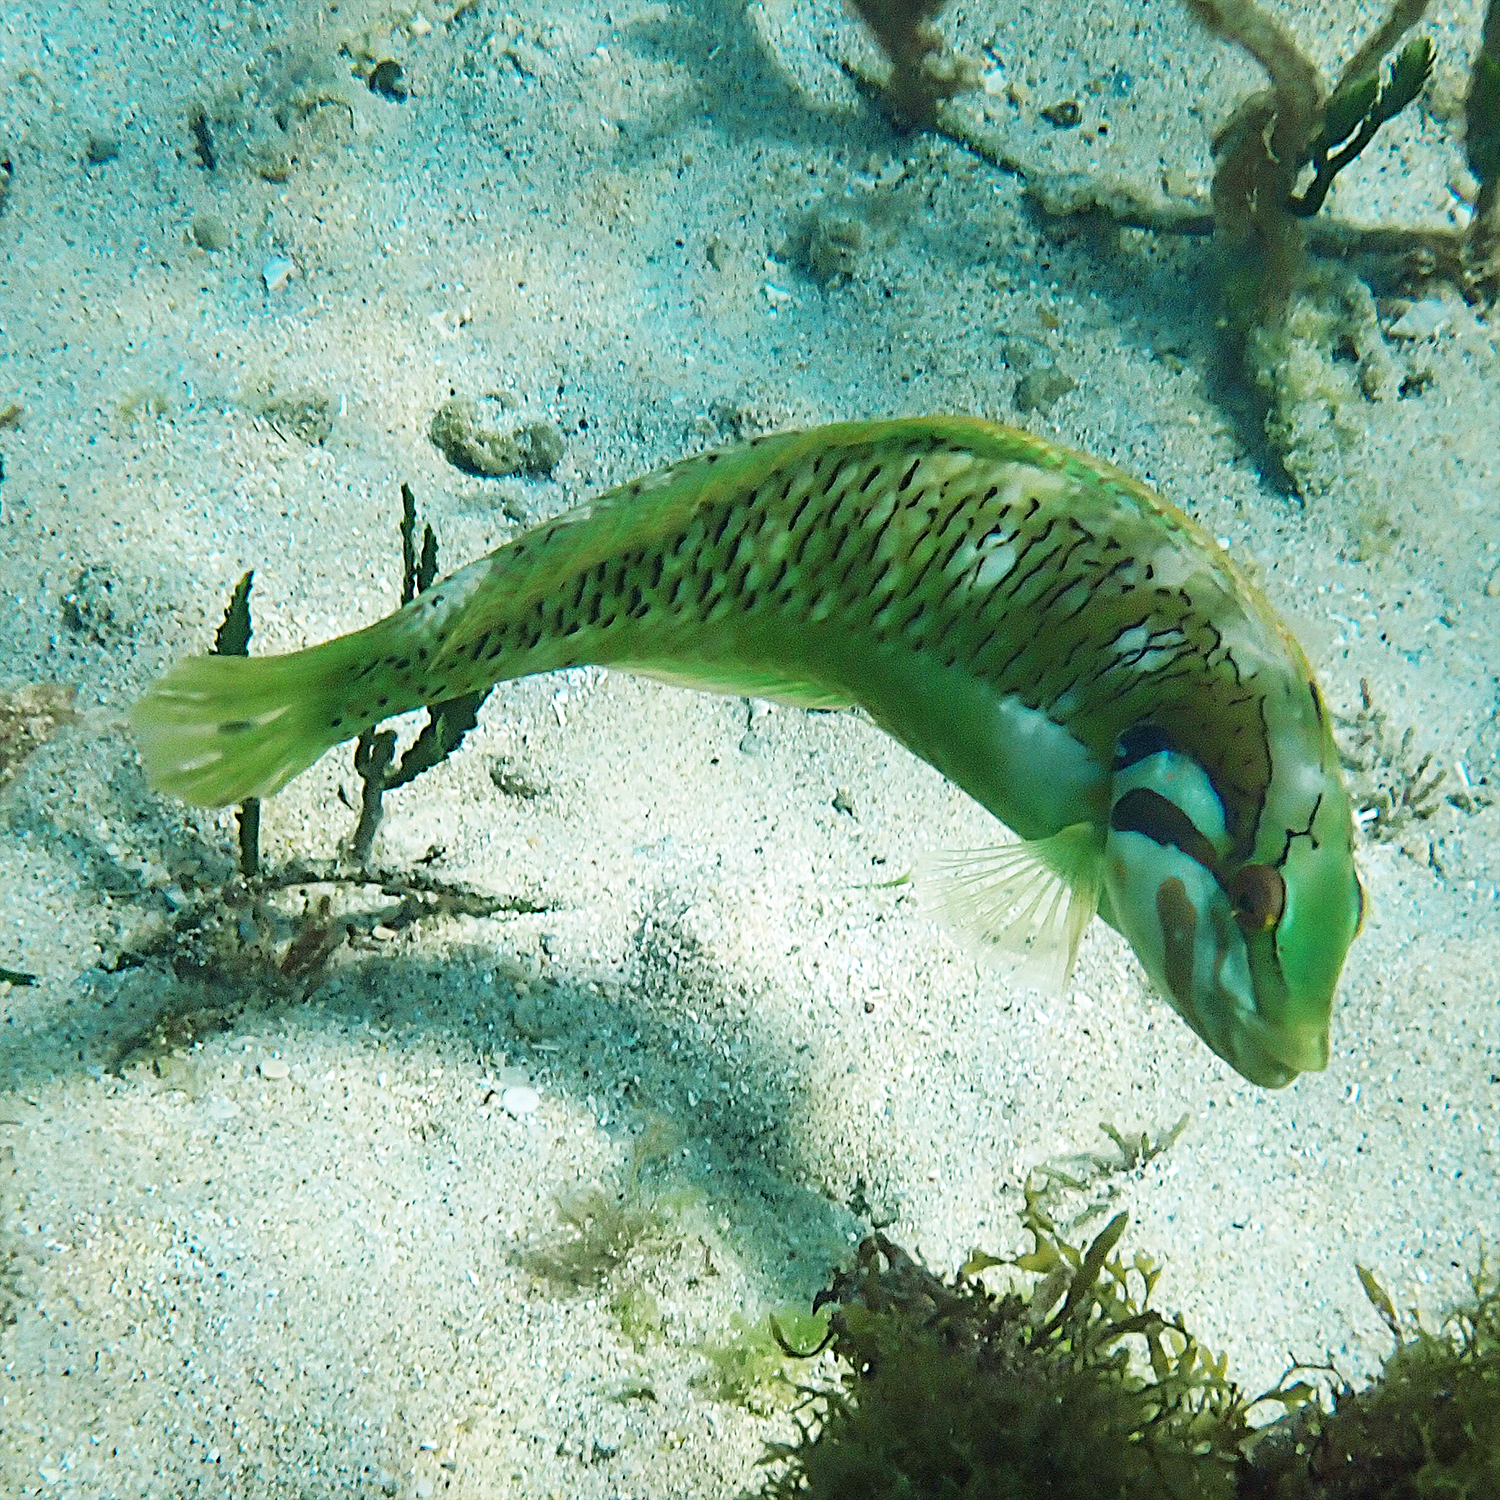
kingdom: Animalia
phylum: Chordata
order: Perciformes
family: Labridae
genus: Novaculoides
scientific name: Novaculoides macrolepidotus
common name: Seagrass wrasse
